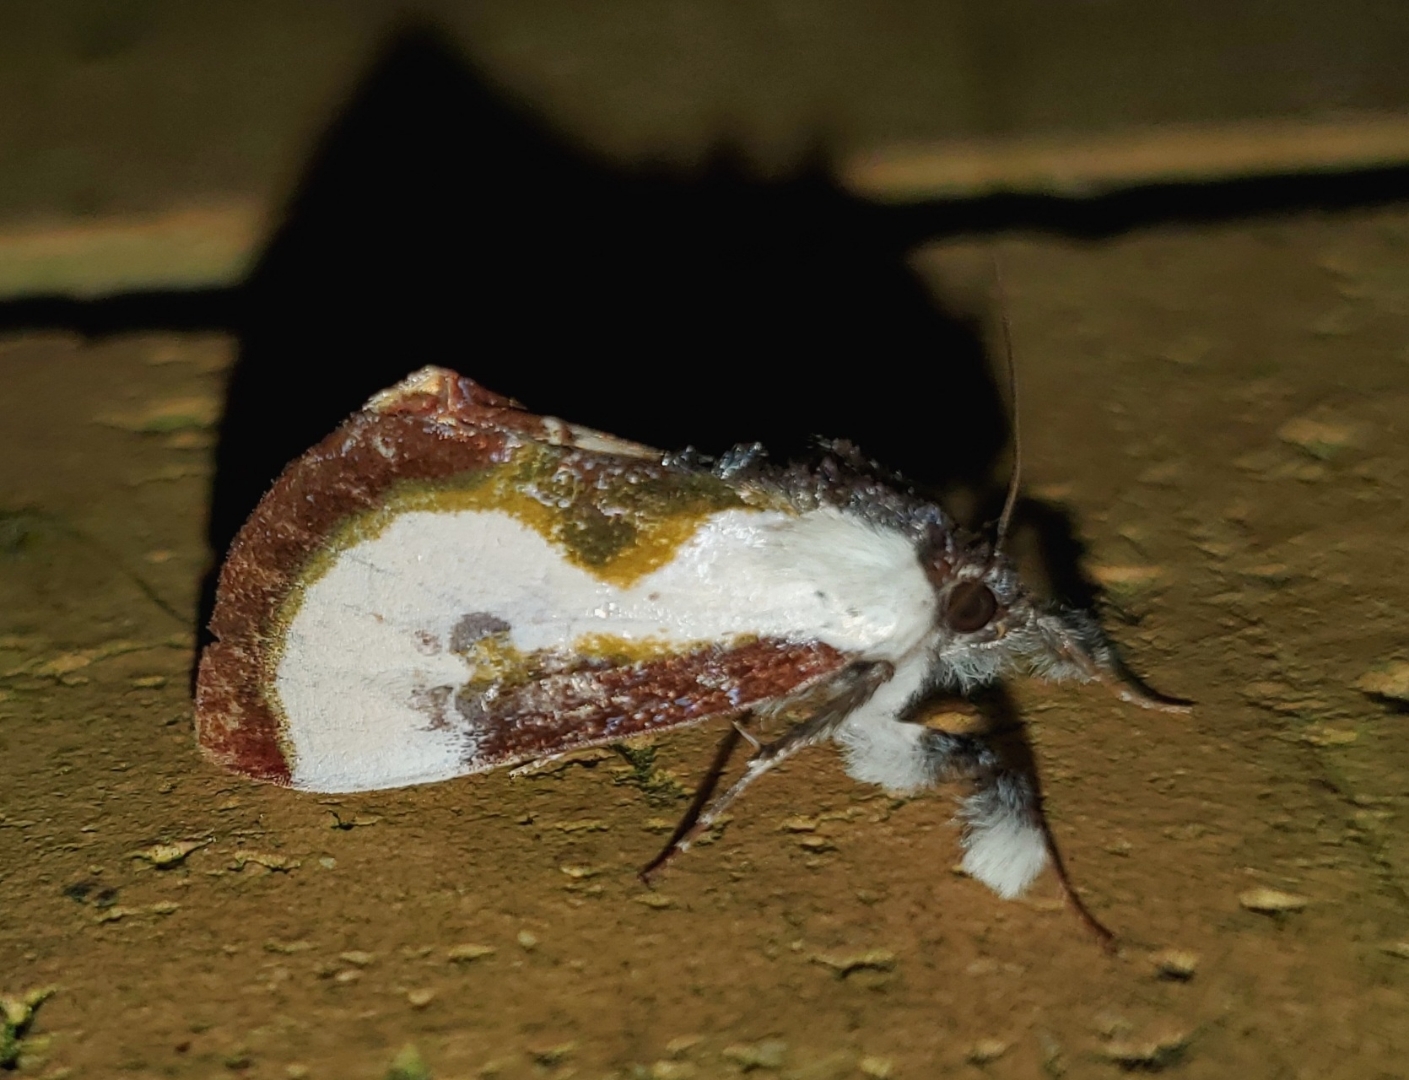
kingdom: Animalia
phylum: Arthropoda
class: Insecta
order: Lepidoptera
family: Noctuidae
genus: Eudryas
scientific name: Eudryas grata
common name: Beautiful wood-nymph
